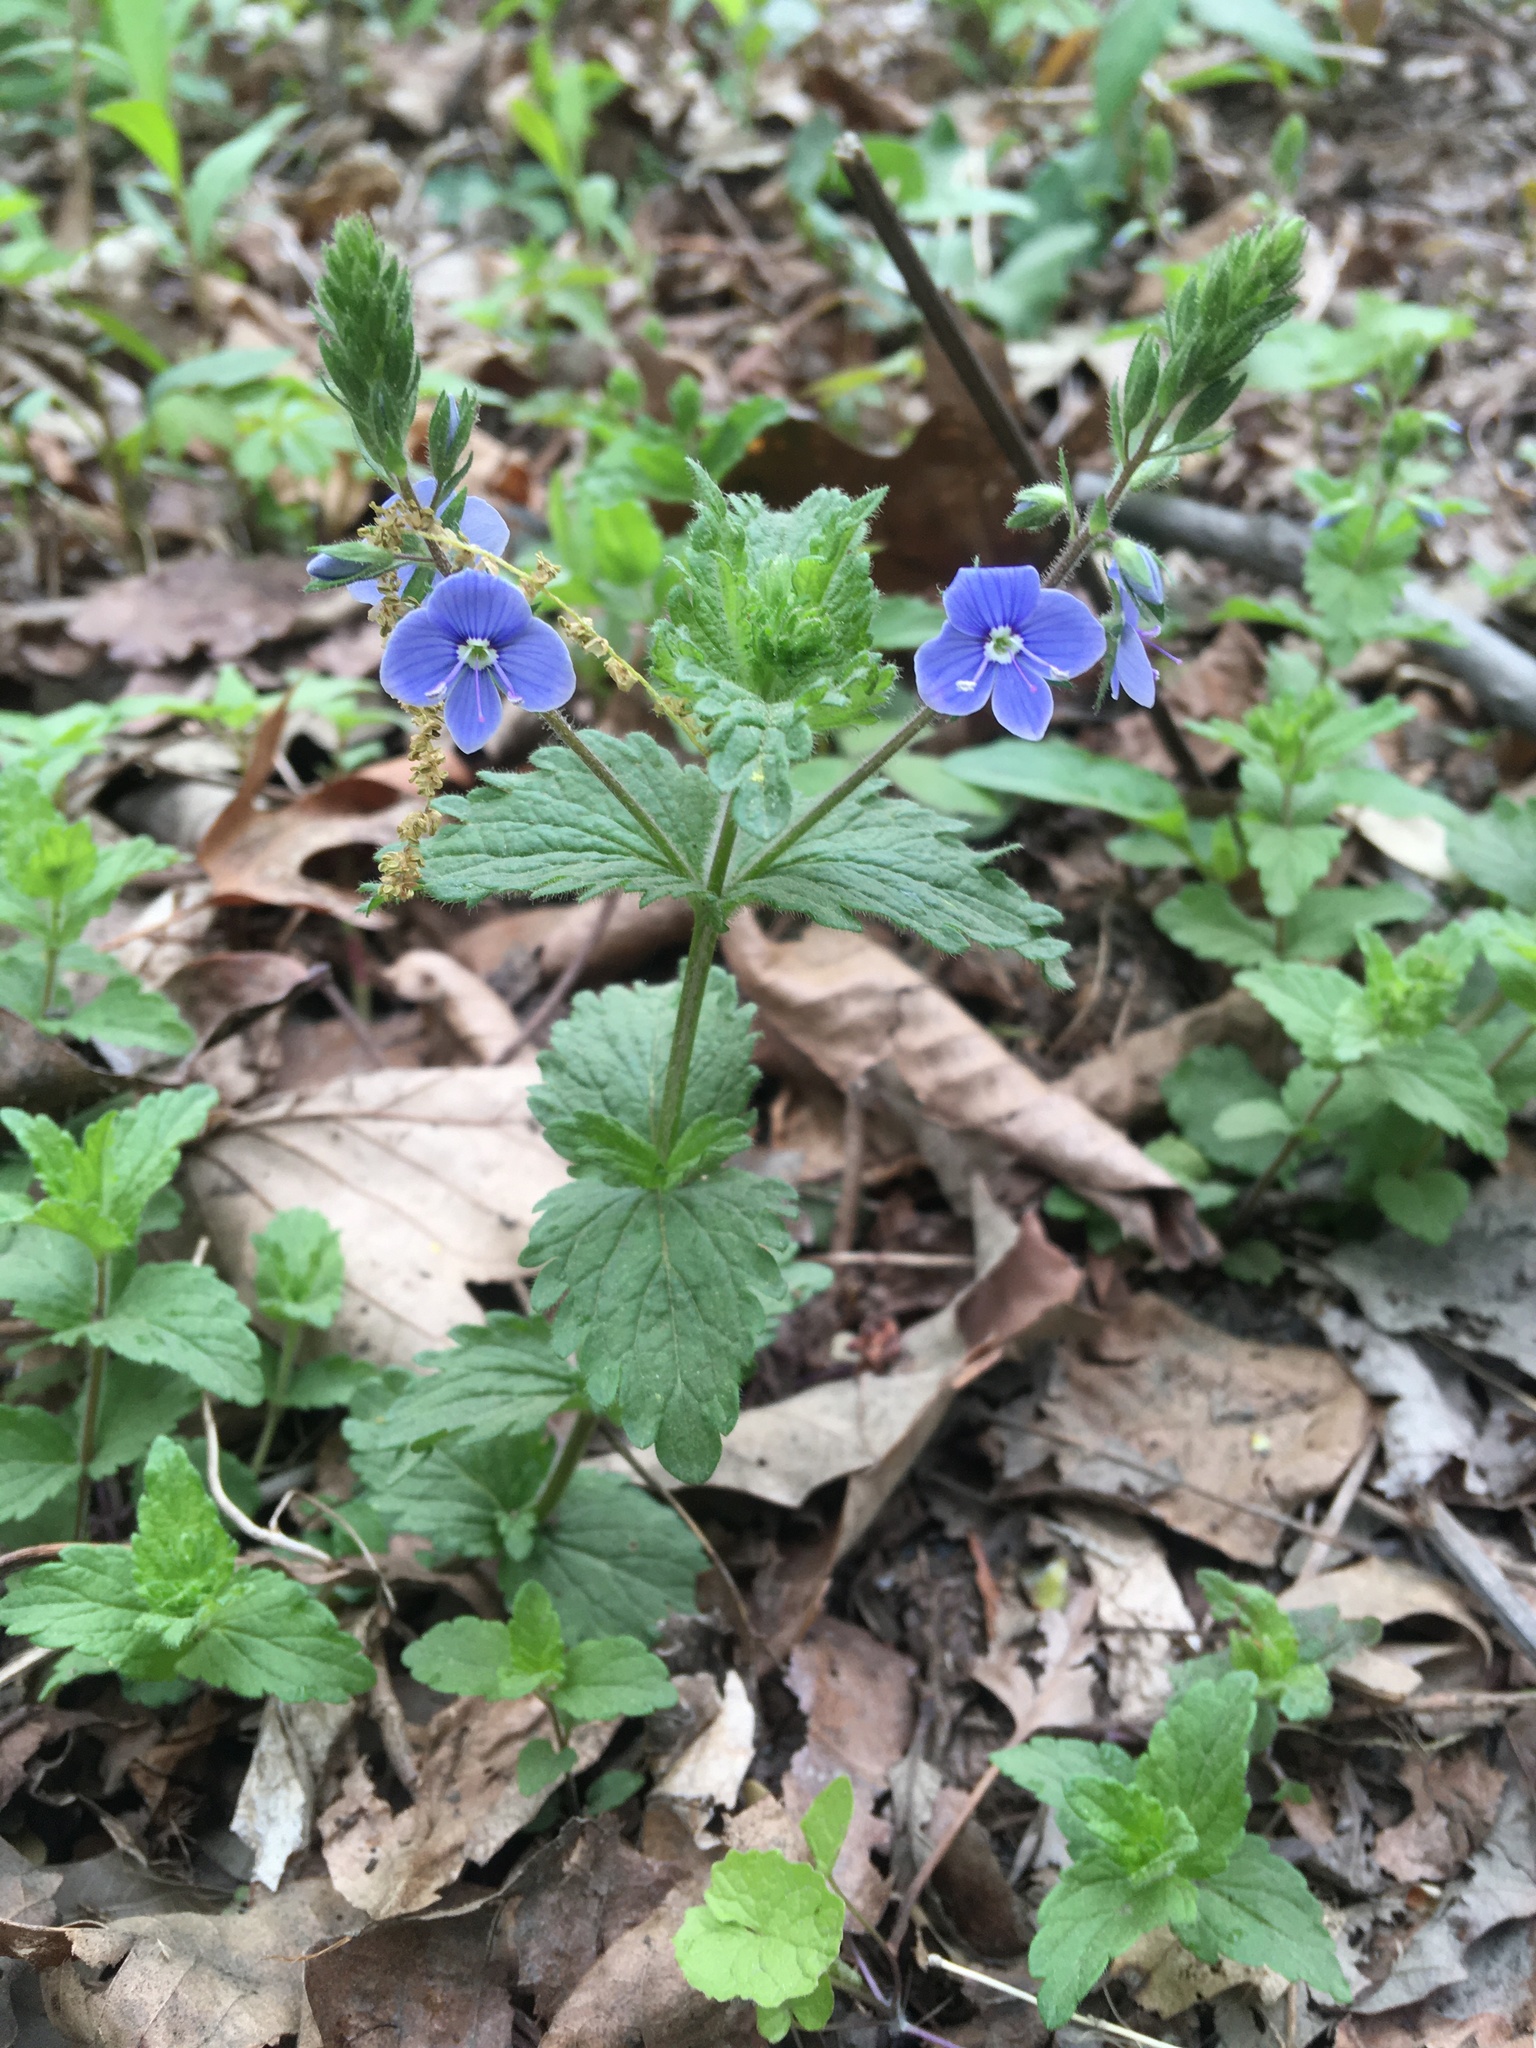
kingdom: Plantae
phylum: Tracheophyta
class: Magnoliopsida
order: Lamiales
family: Plantaginaceae
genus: Veronica
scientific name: Veronica chamaedrys
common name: Germander speedwell
